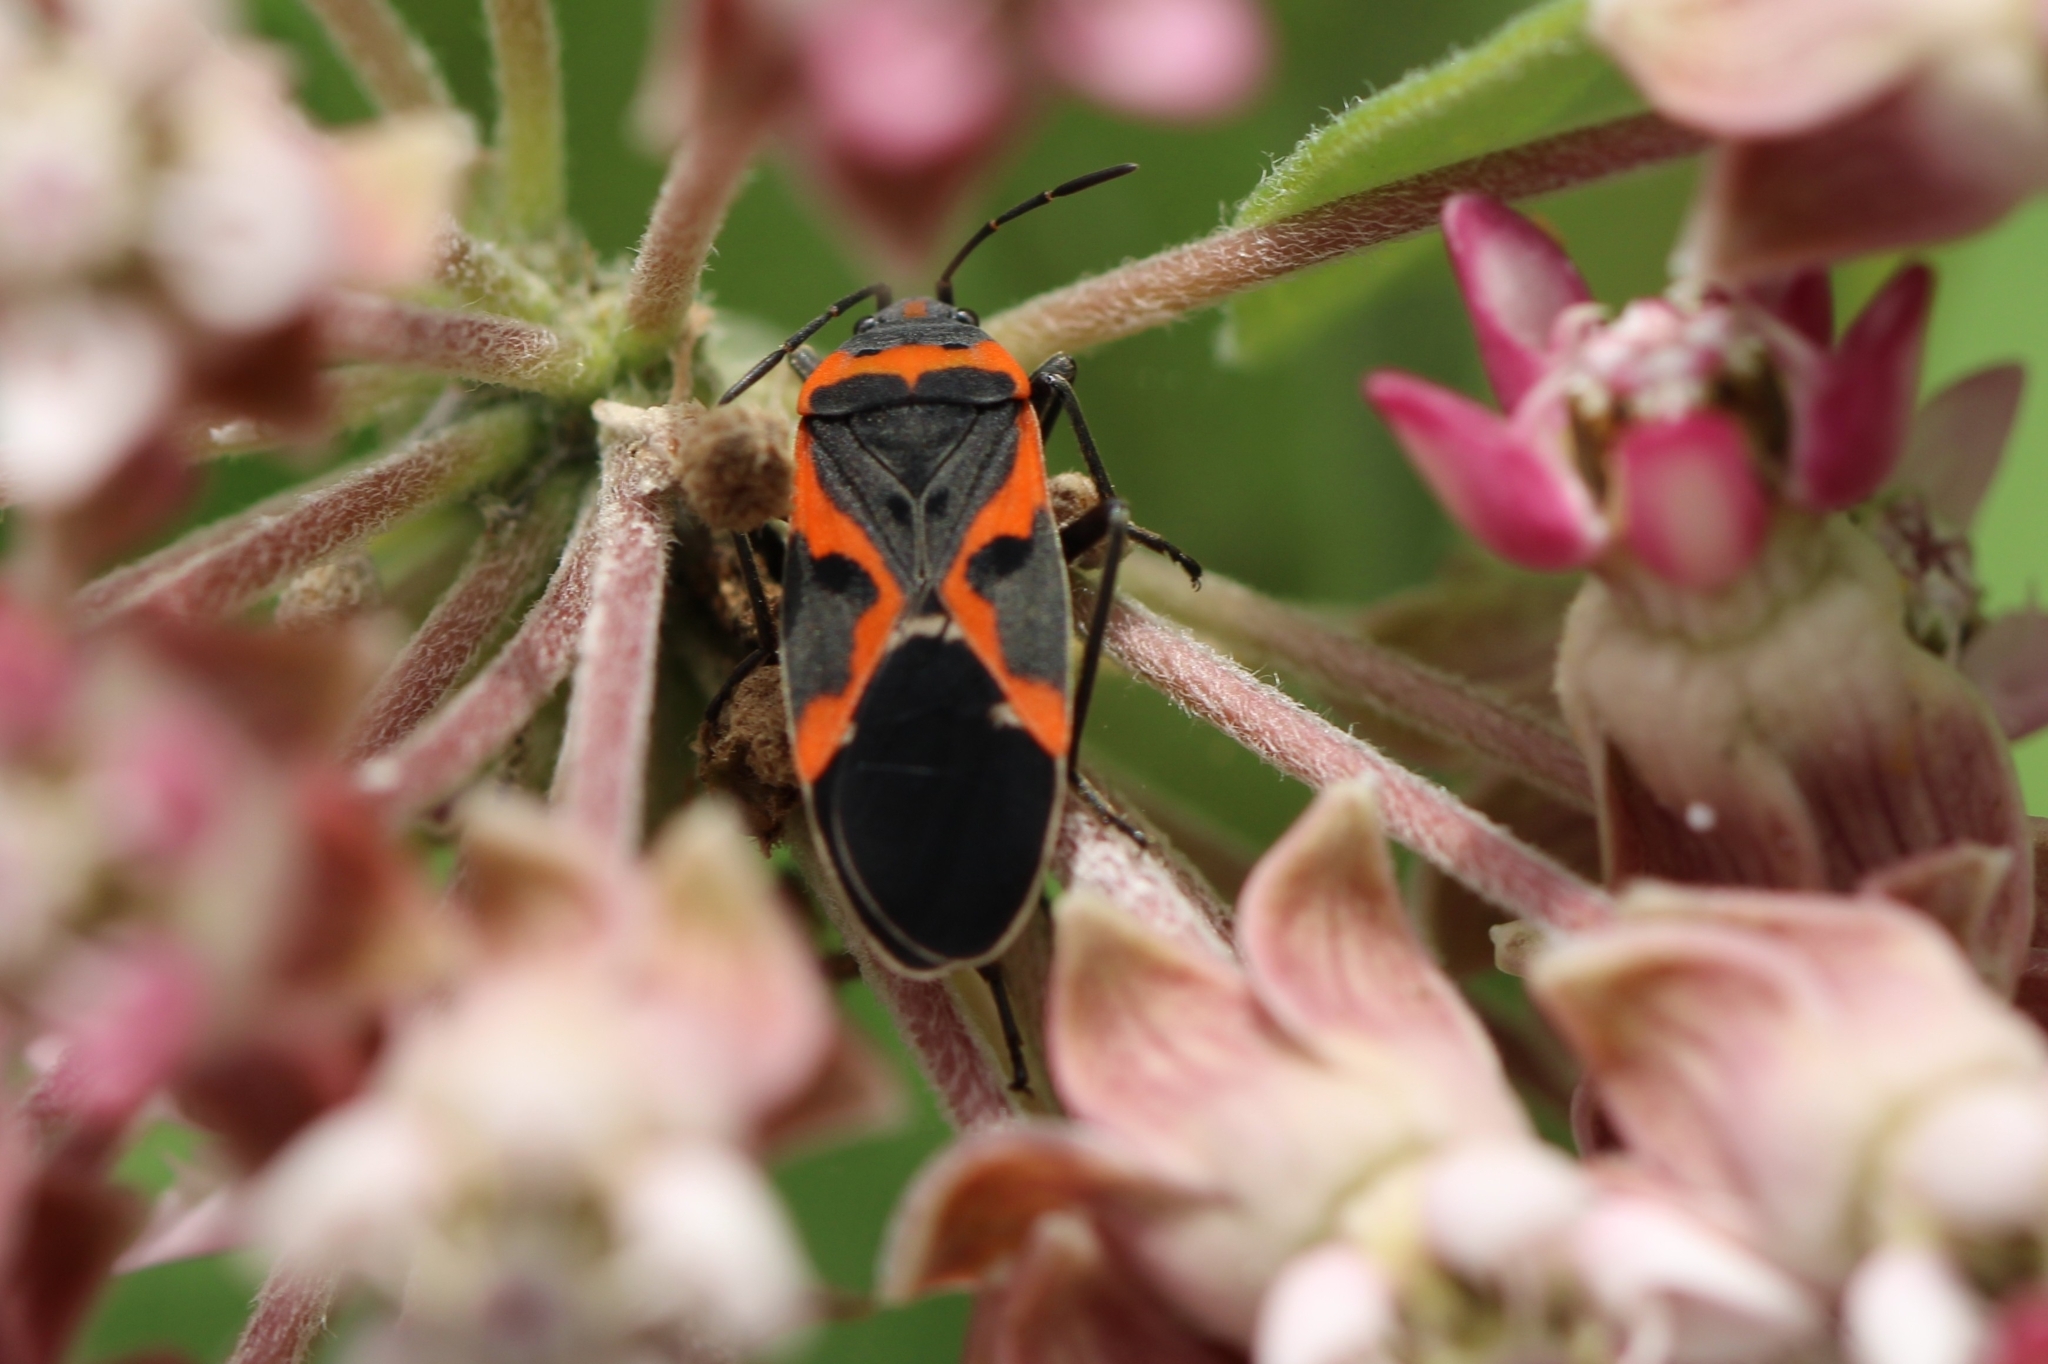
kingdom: Animalia
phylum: Arthropoda
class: Insecta
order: Hemiptera
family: Lygaeidae
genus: Lygaeus
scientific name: Lygaeus kalmii
